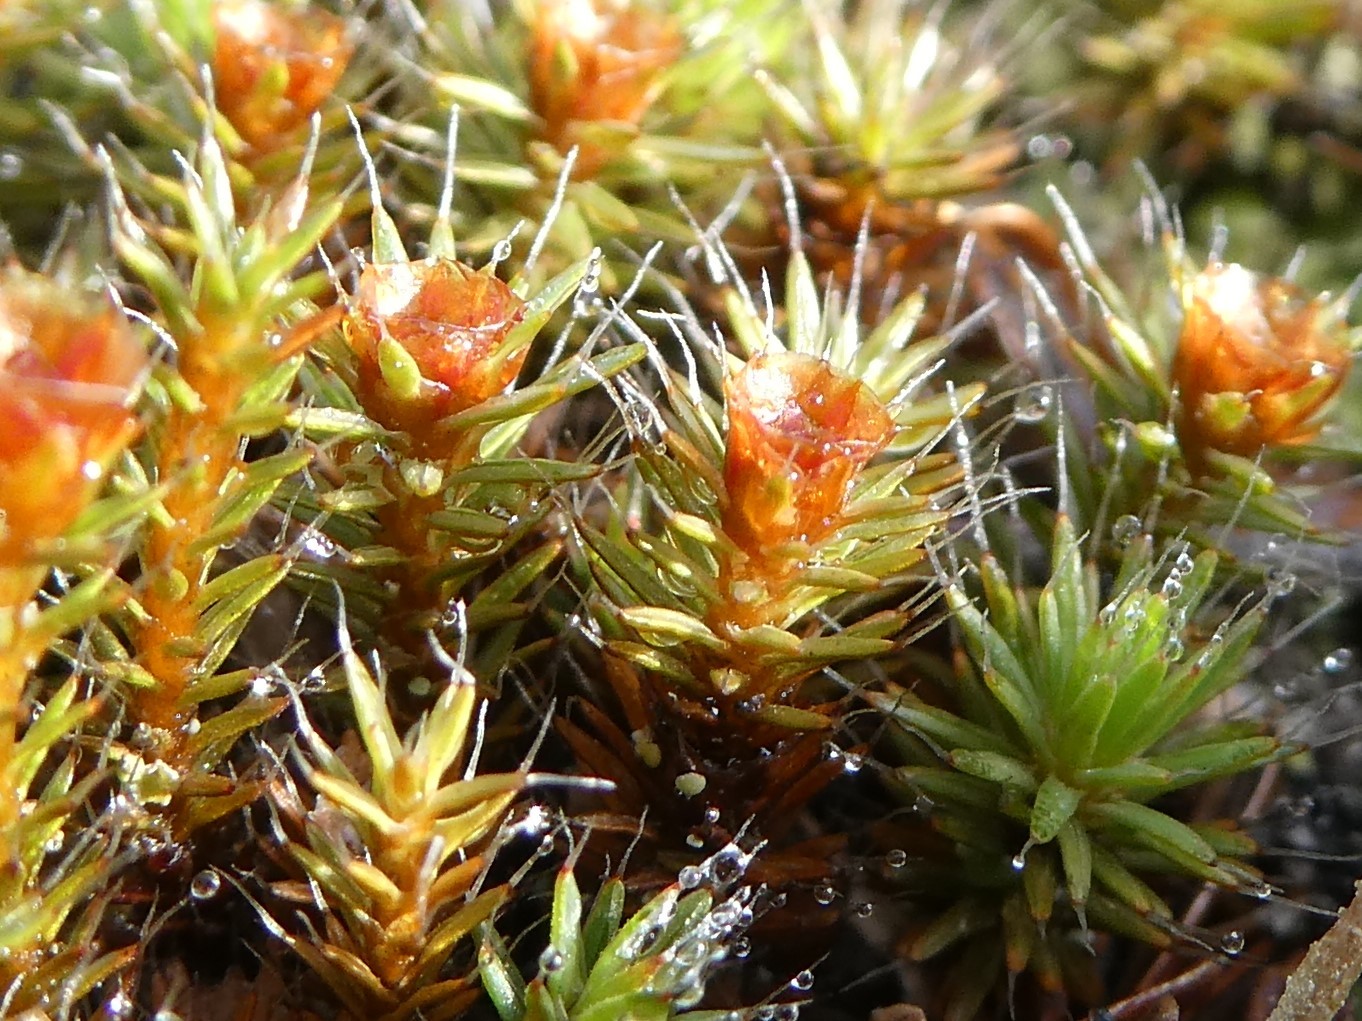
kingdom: Plantae
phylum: Bryophyta
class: Polytrichopsida
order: Polytrichales
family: Polytrichaceae
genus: Polytrichum
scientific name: Polytrichum piliferum
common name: Bristly haircap
